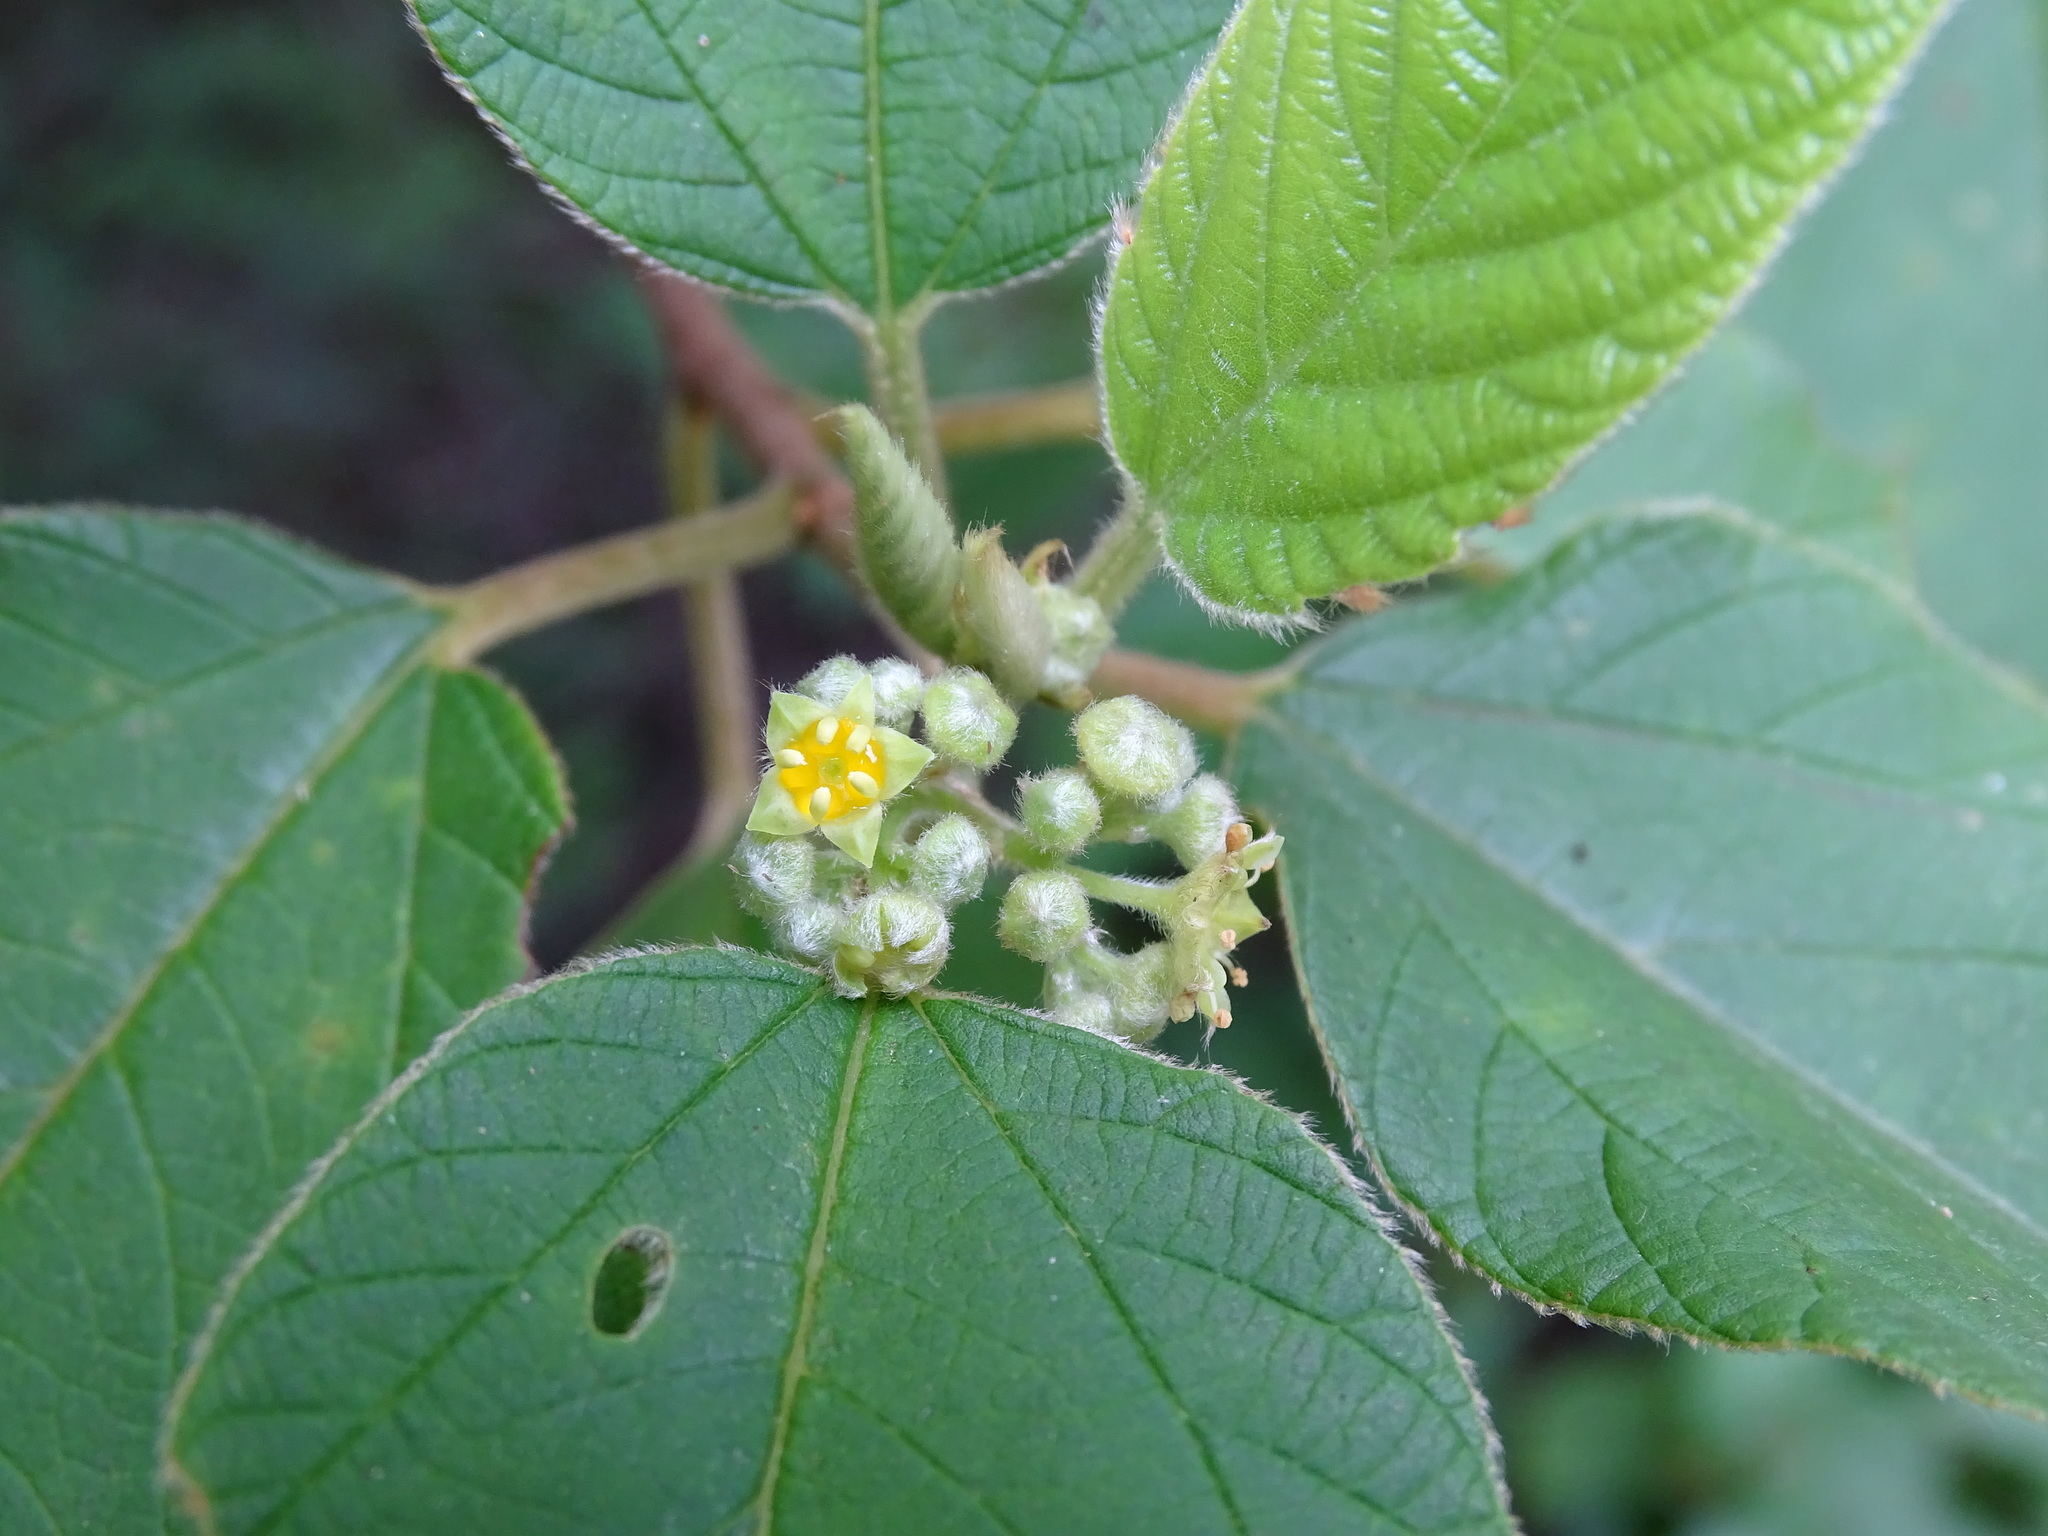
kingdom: Plantae
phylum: Tracheophyta
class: Magnoliopsida
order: Rosales
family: Rhamnaceae
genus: Colubrina
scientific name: Colubrina yucatanensis
